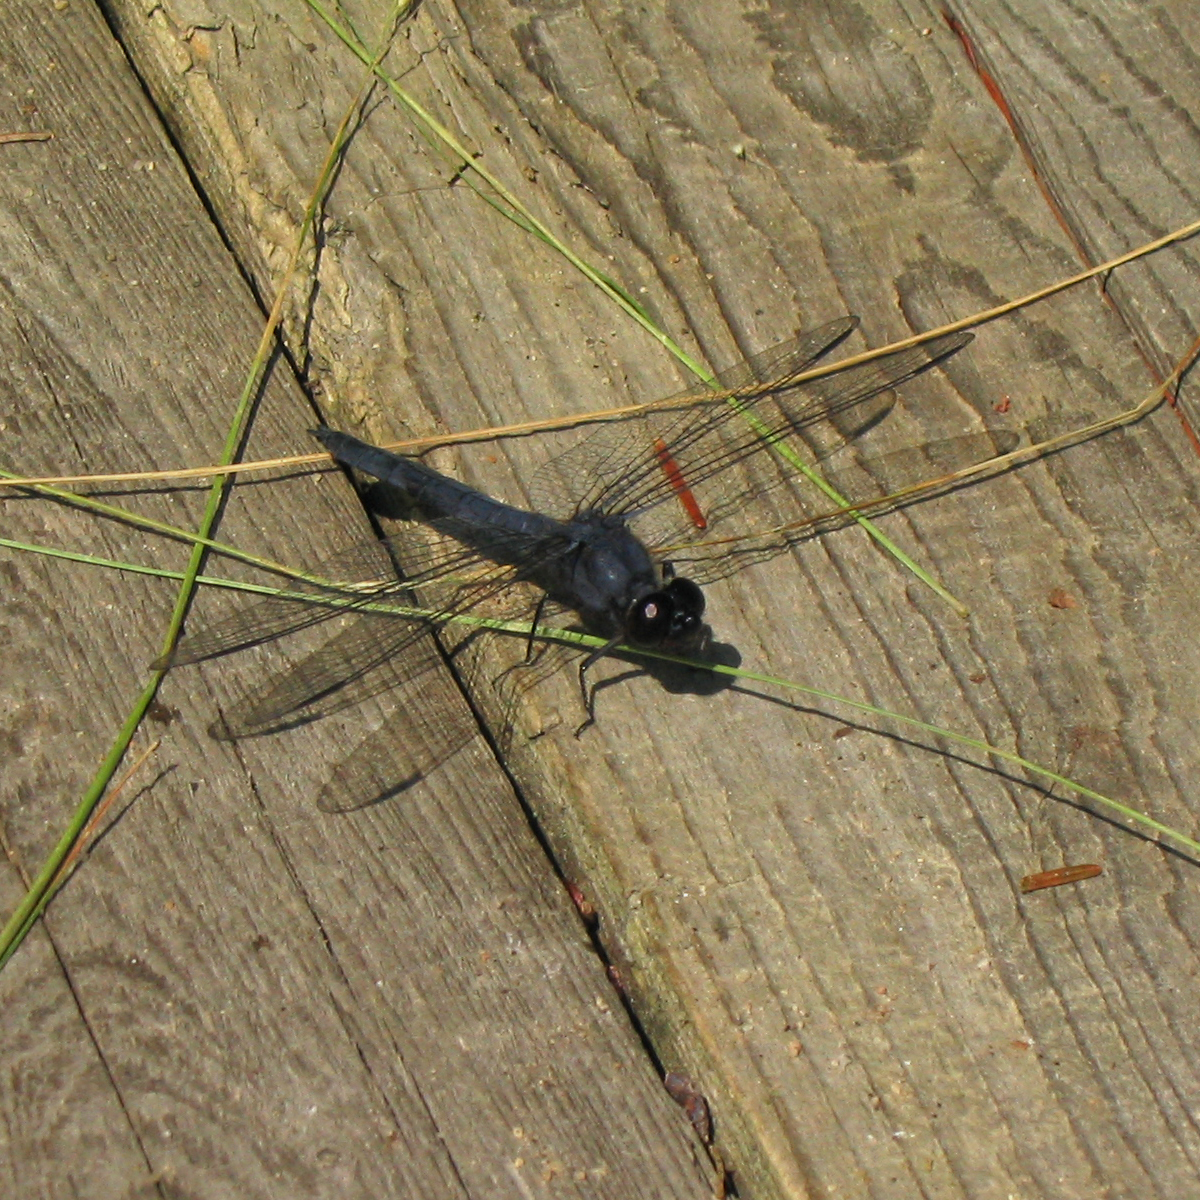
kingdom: Animalia
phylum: Arthropoda
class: Insecta
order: Odonata
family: Libellulidae
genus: Libellula
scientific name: Libellula incesta
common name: Slaty skimmer
